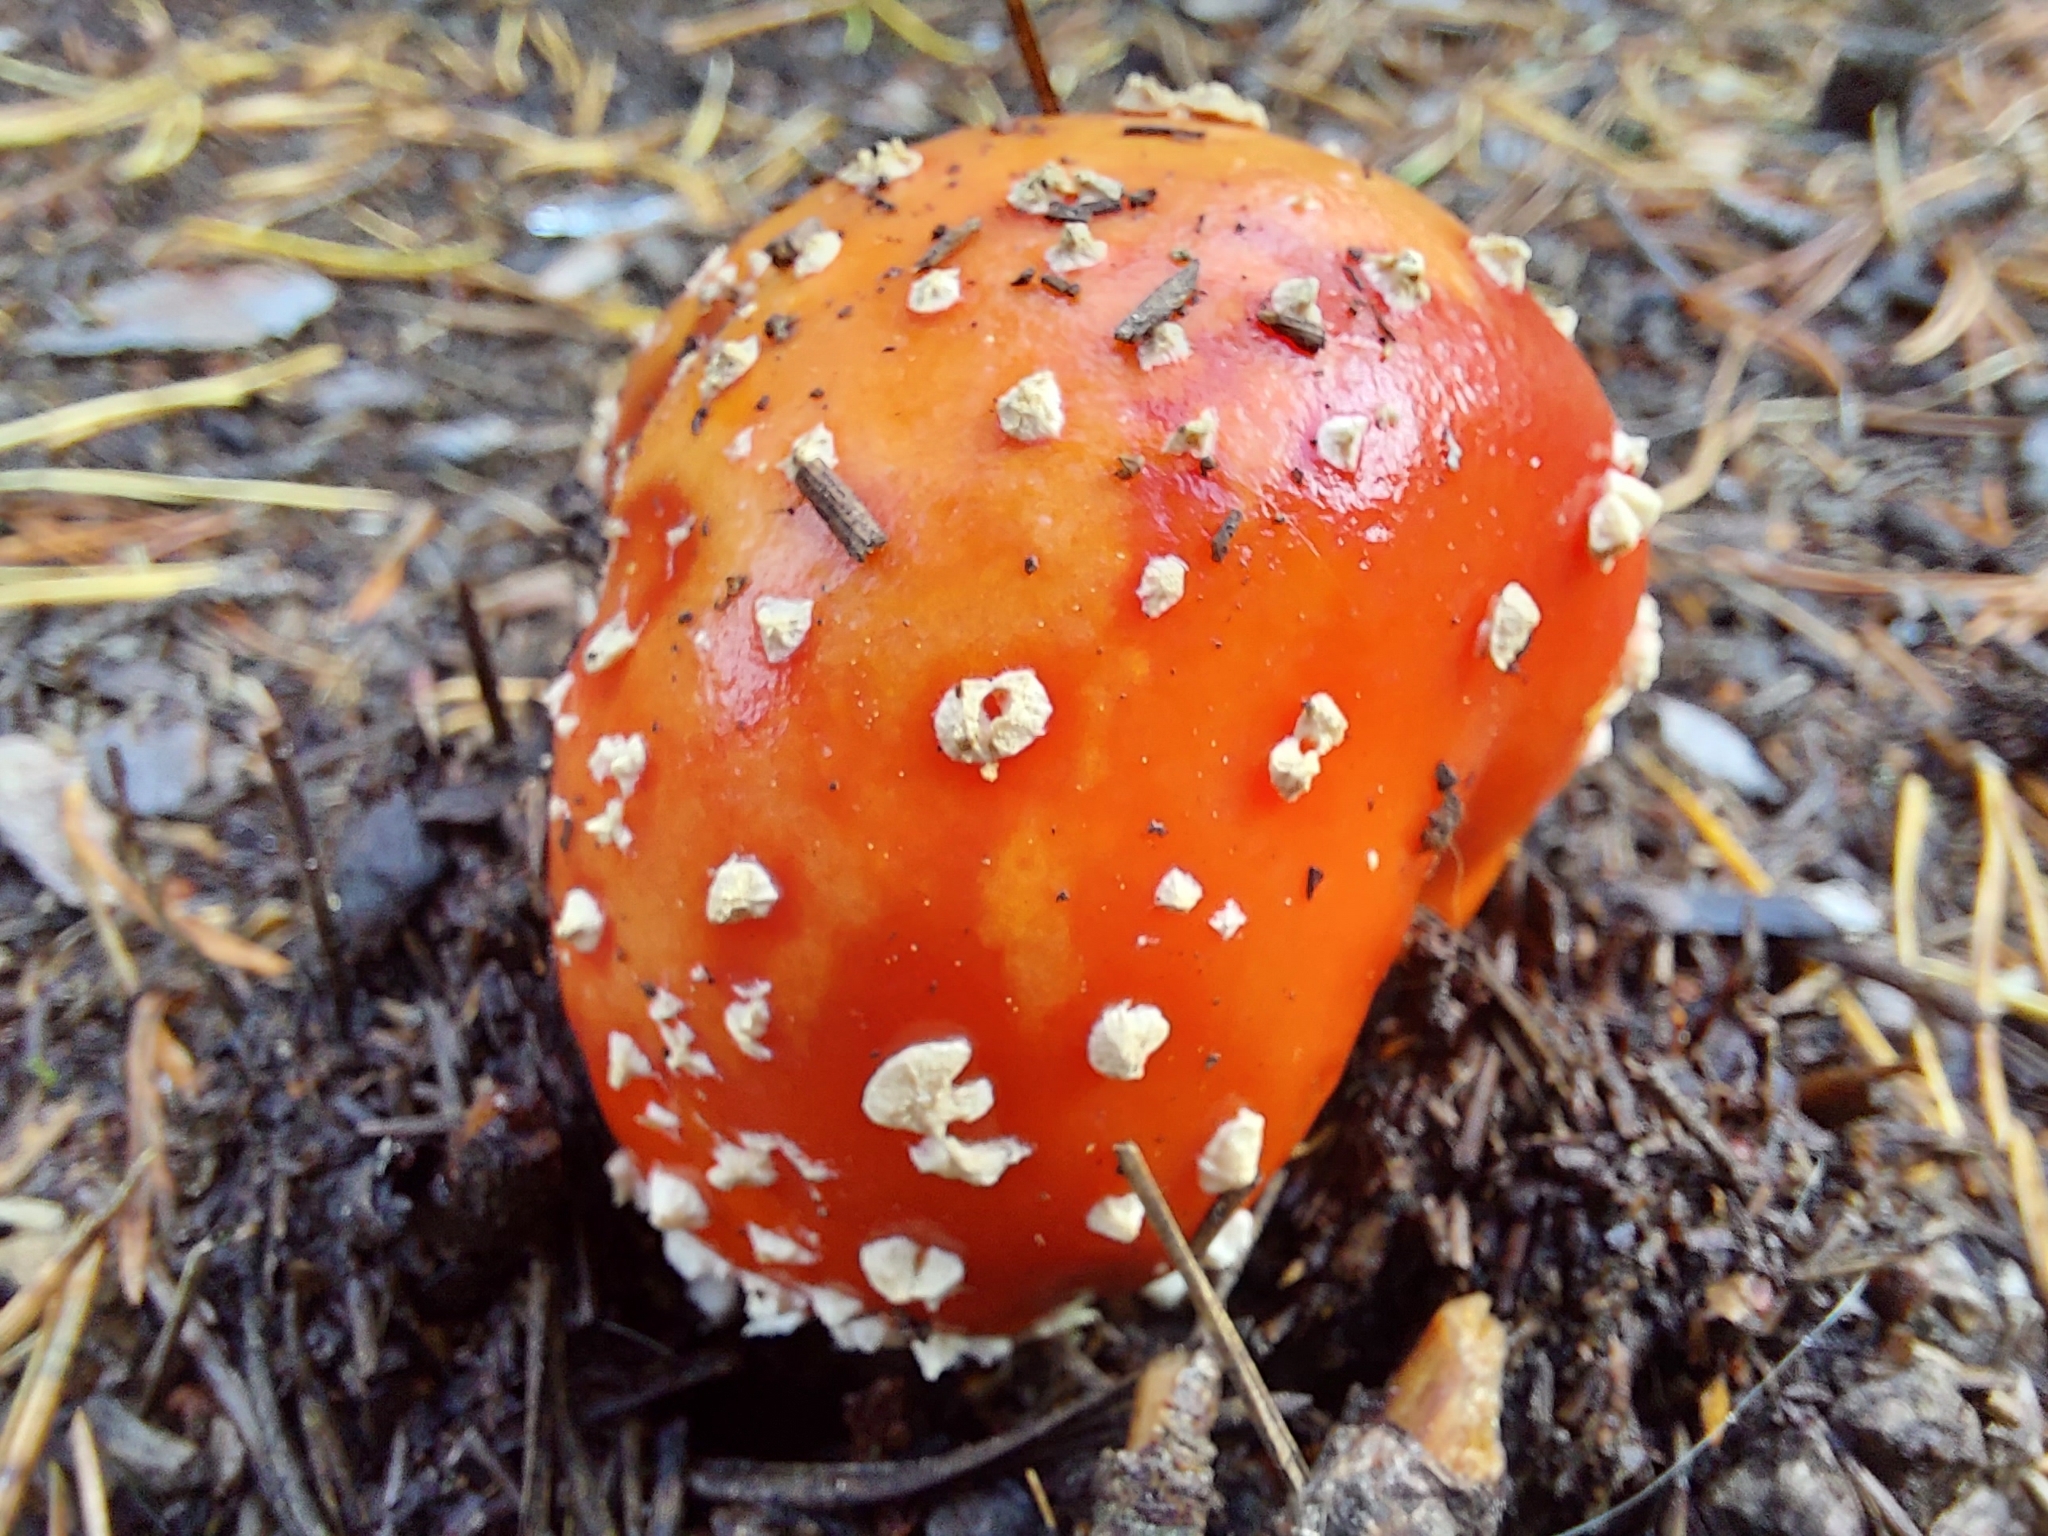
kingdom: Fungi
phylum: Basidiomycota
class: Agaricomycetes
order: Agaricales
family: Amanitaceae
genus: Amanita
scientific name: Amanita muscaria
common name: Fly agaric
